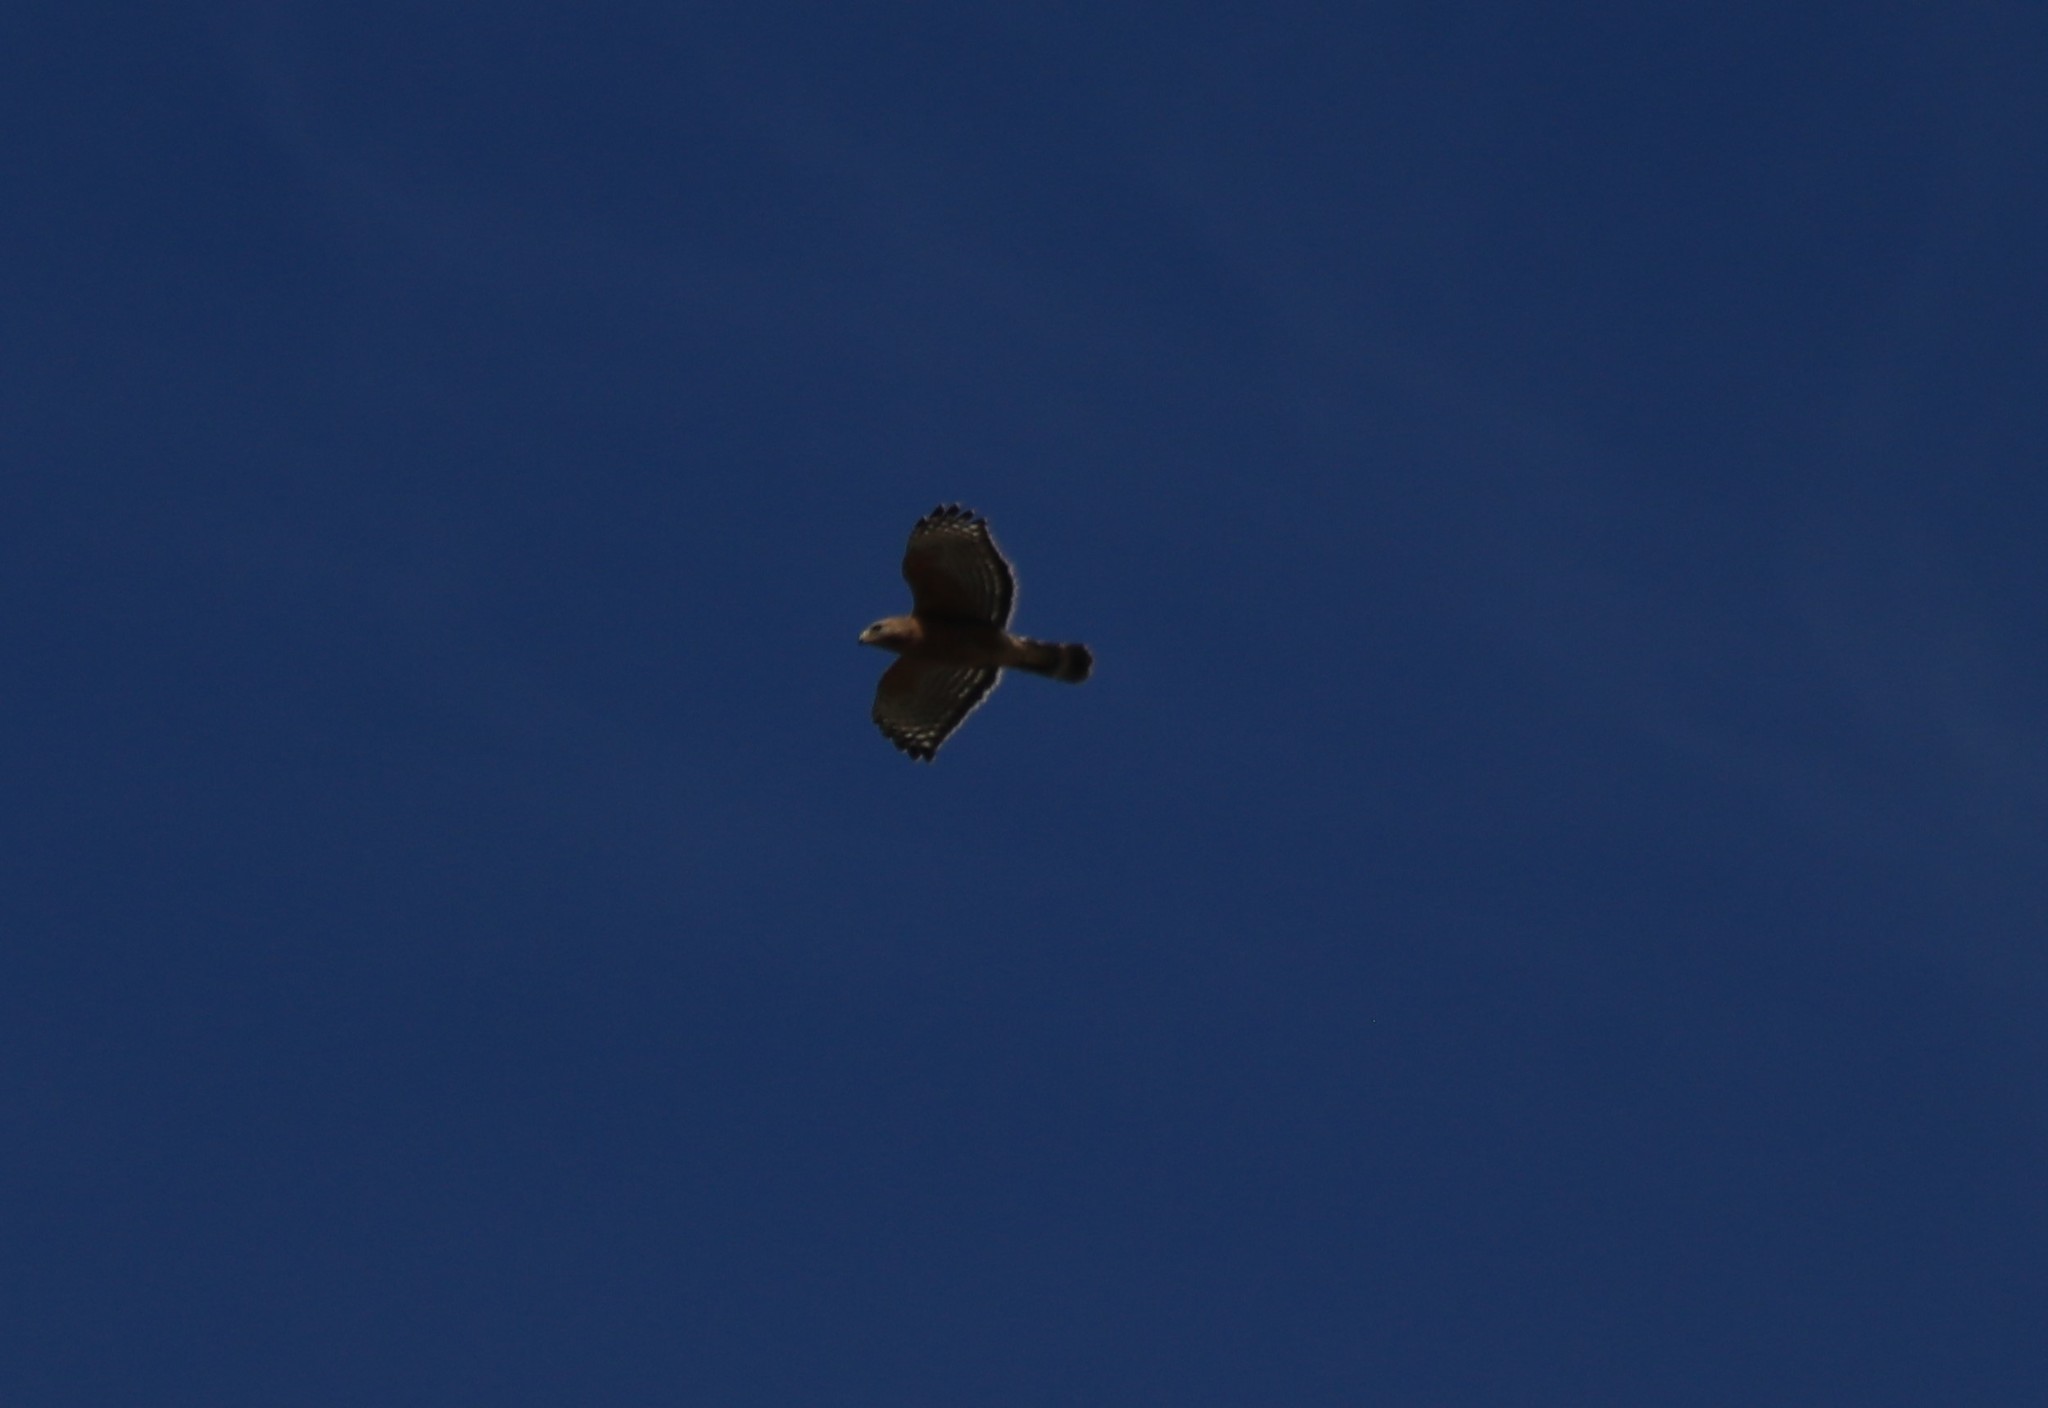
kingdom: Animalia
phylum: Chordata
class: Aves
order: Accipitriformes
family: Accipitridae
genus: Buteo
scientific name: Buteo lineatus
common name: Red-shouldered hawk
